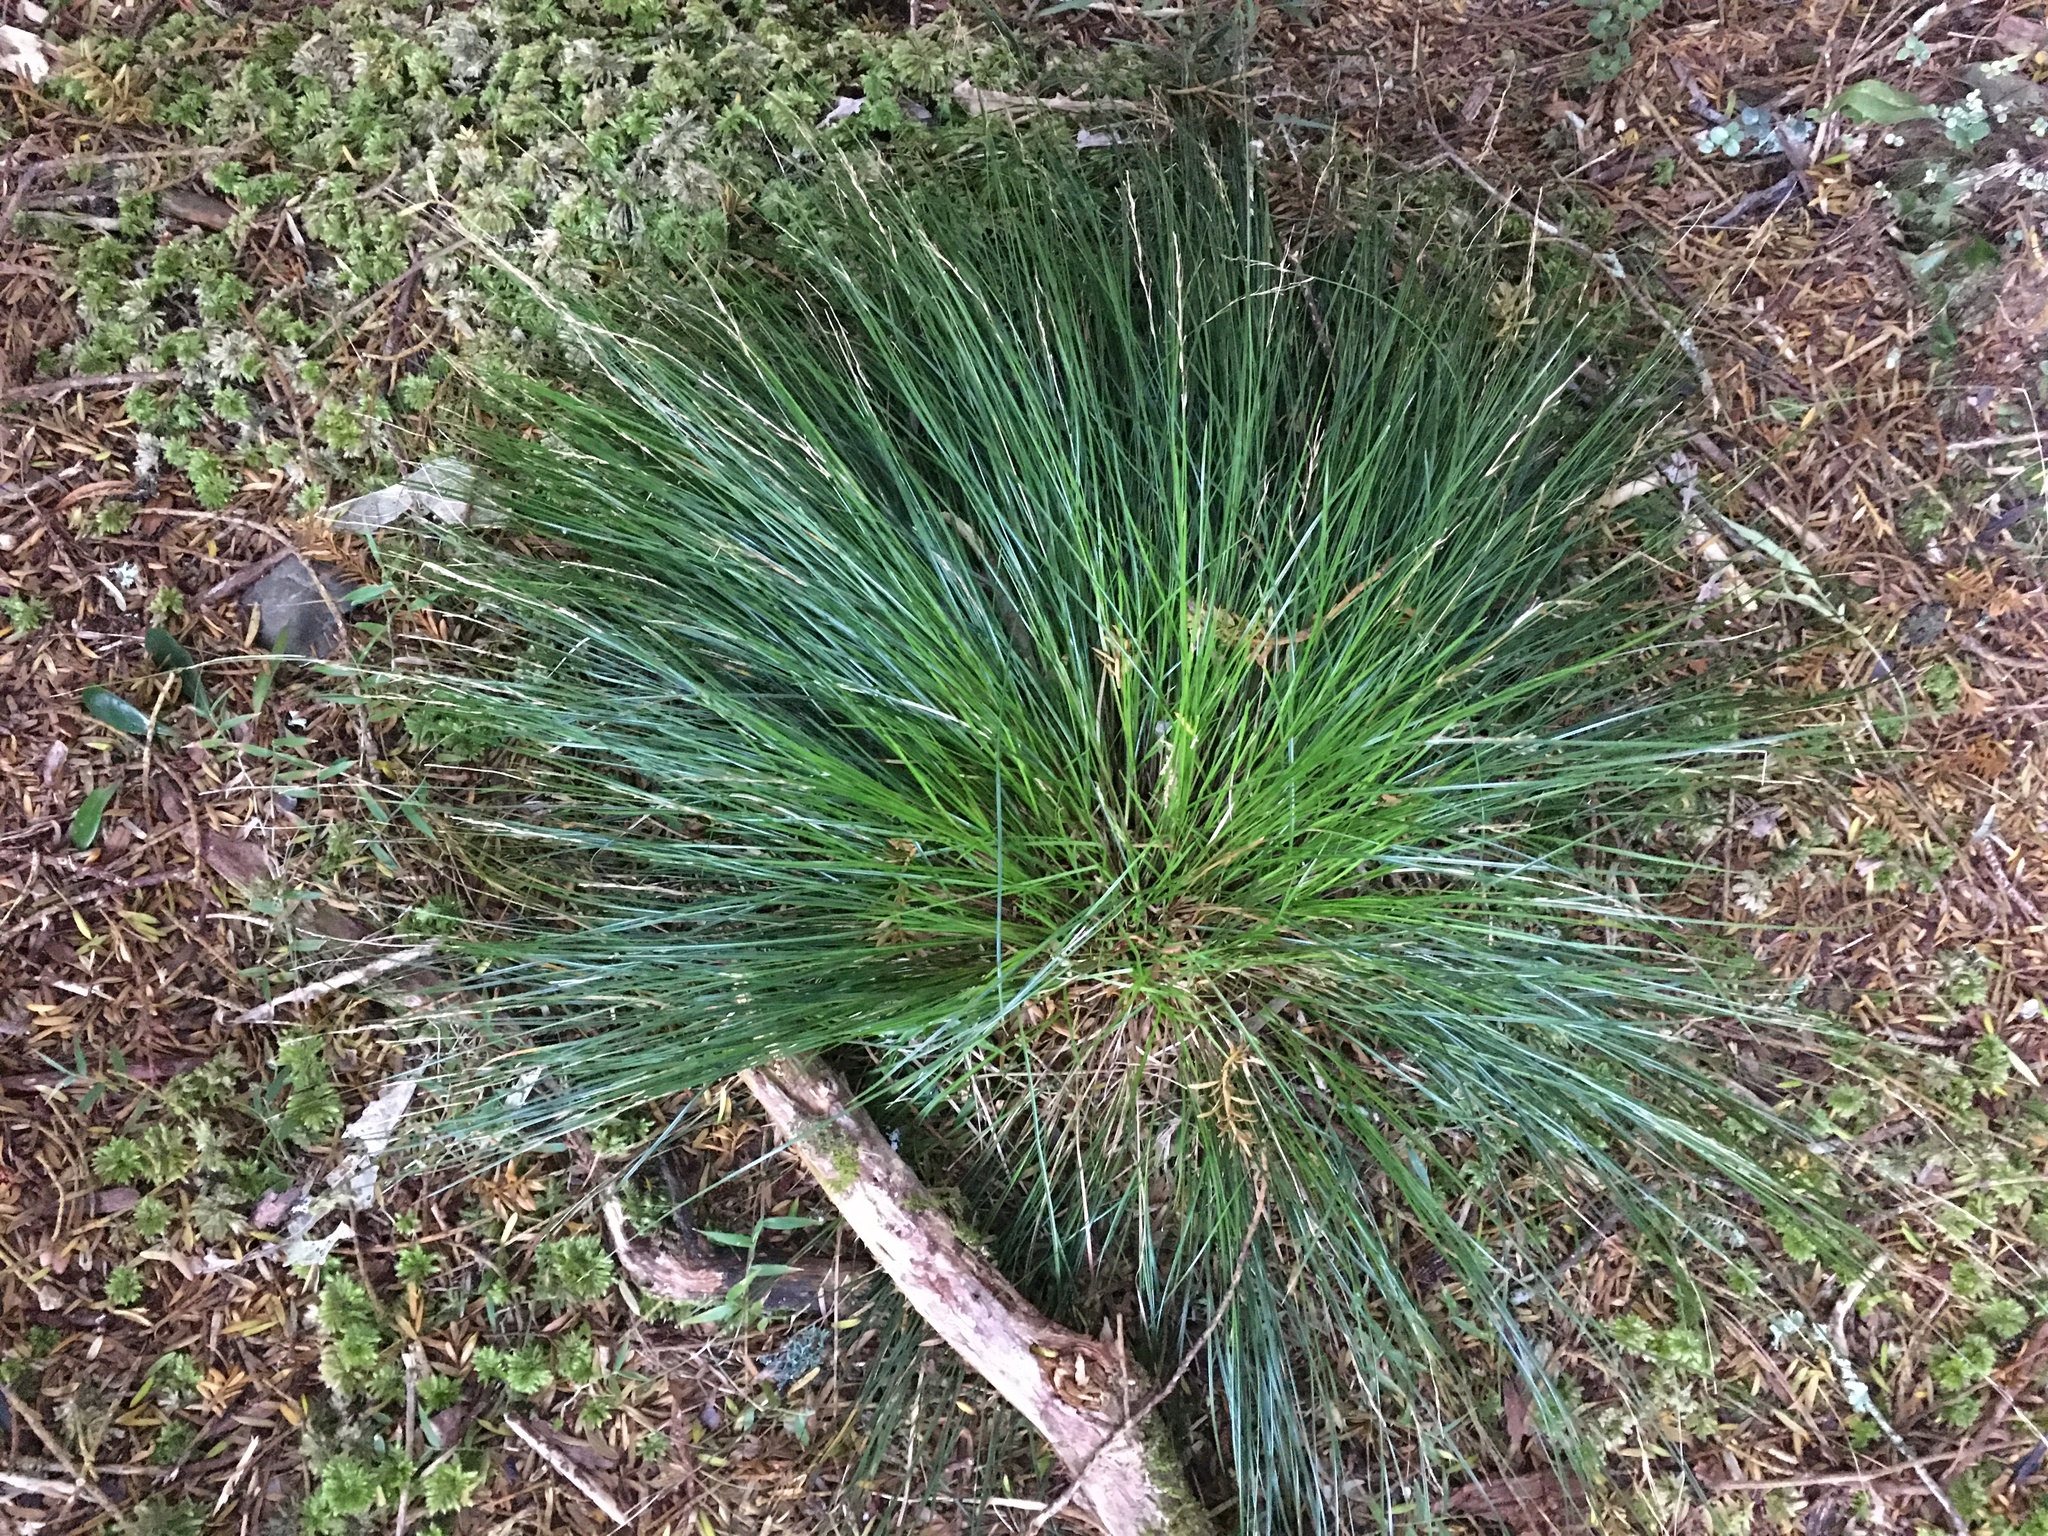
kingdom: Plantae
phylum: Tracheophyta
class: Liliopsida
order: Poales
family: Cyperaceae
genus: Carex
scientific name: Carex banksiana
